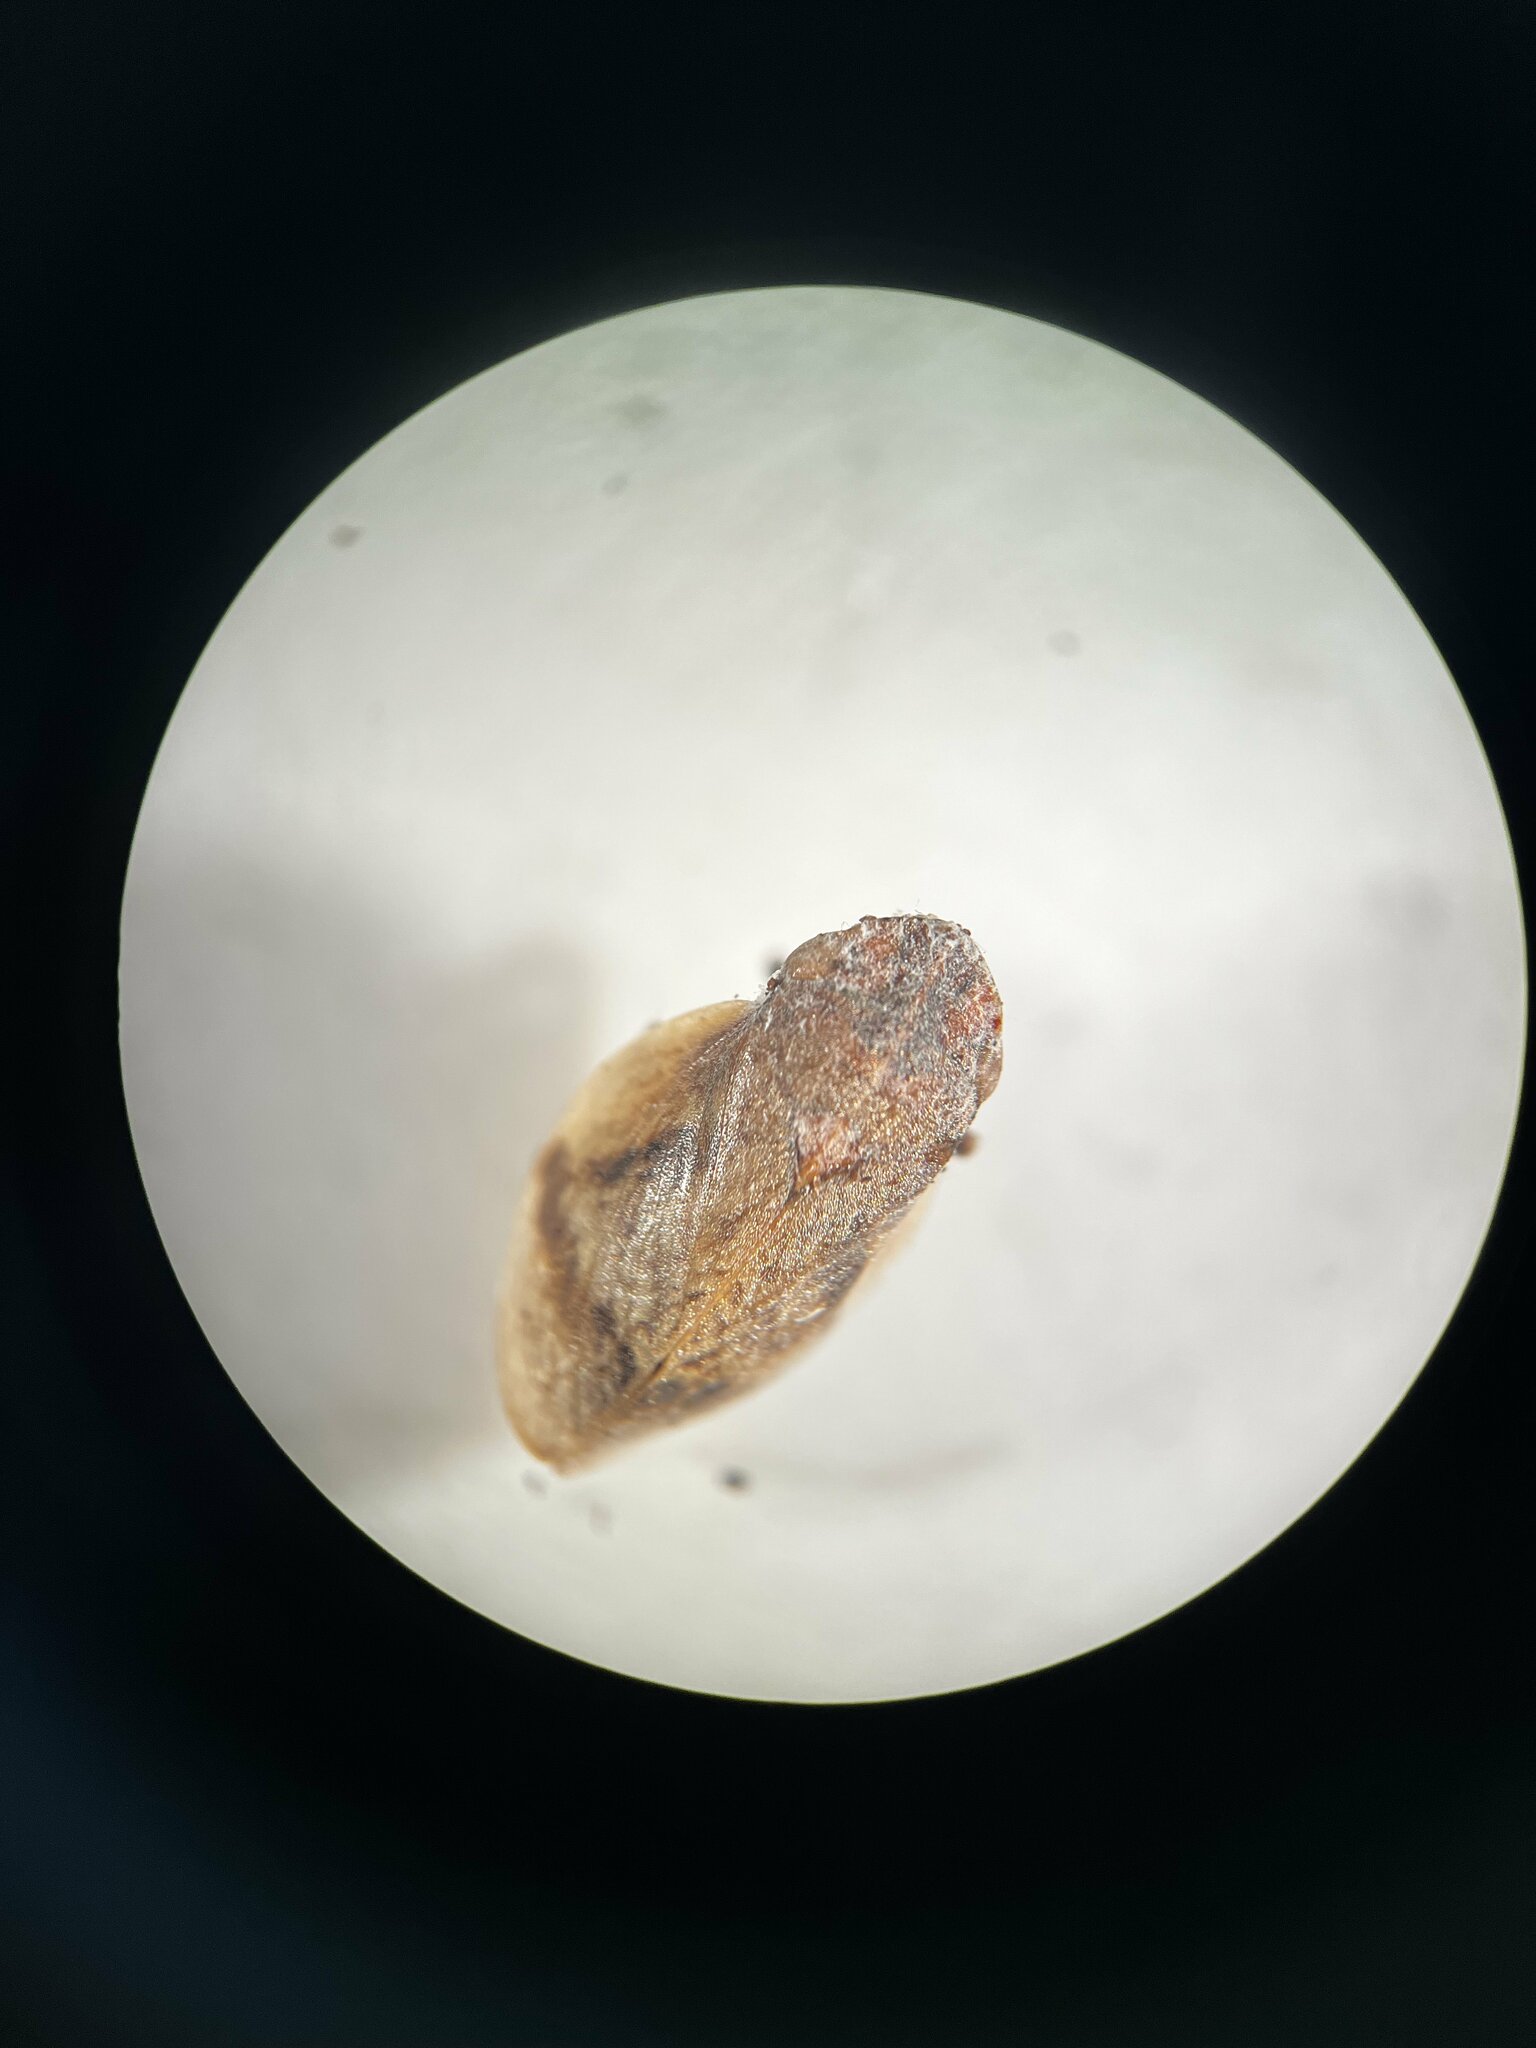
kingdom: Animalia
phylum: Arthropoda
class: Insecta
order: Hemiptera
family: Aphrophoridae
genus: Lepyronia
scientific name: Lepyronia coleoptrata
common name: Leafhopper
